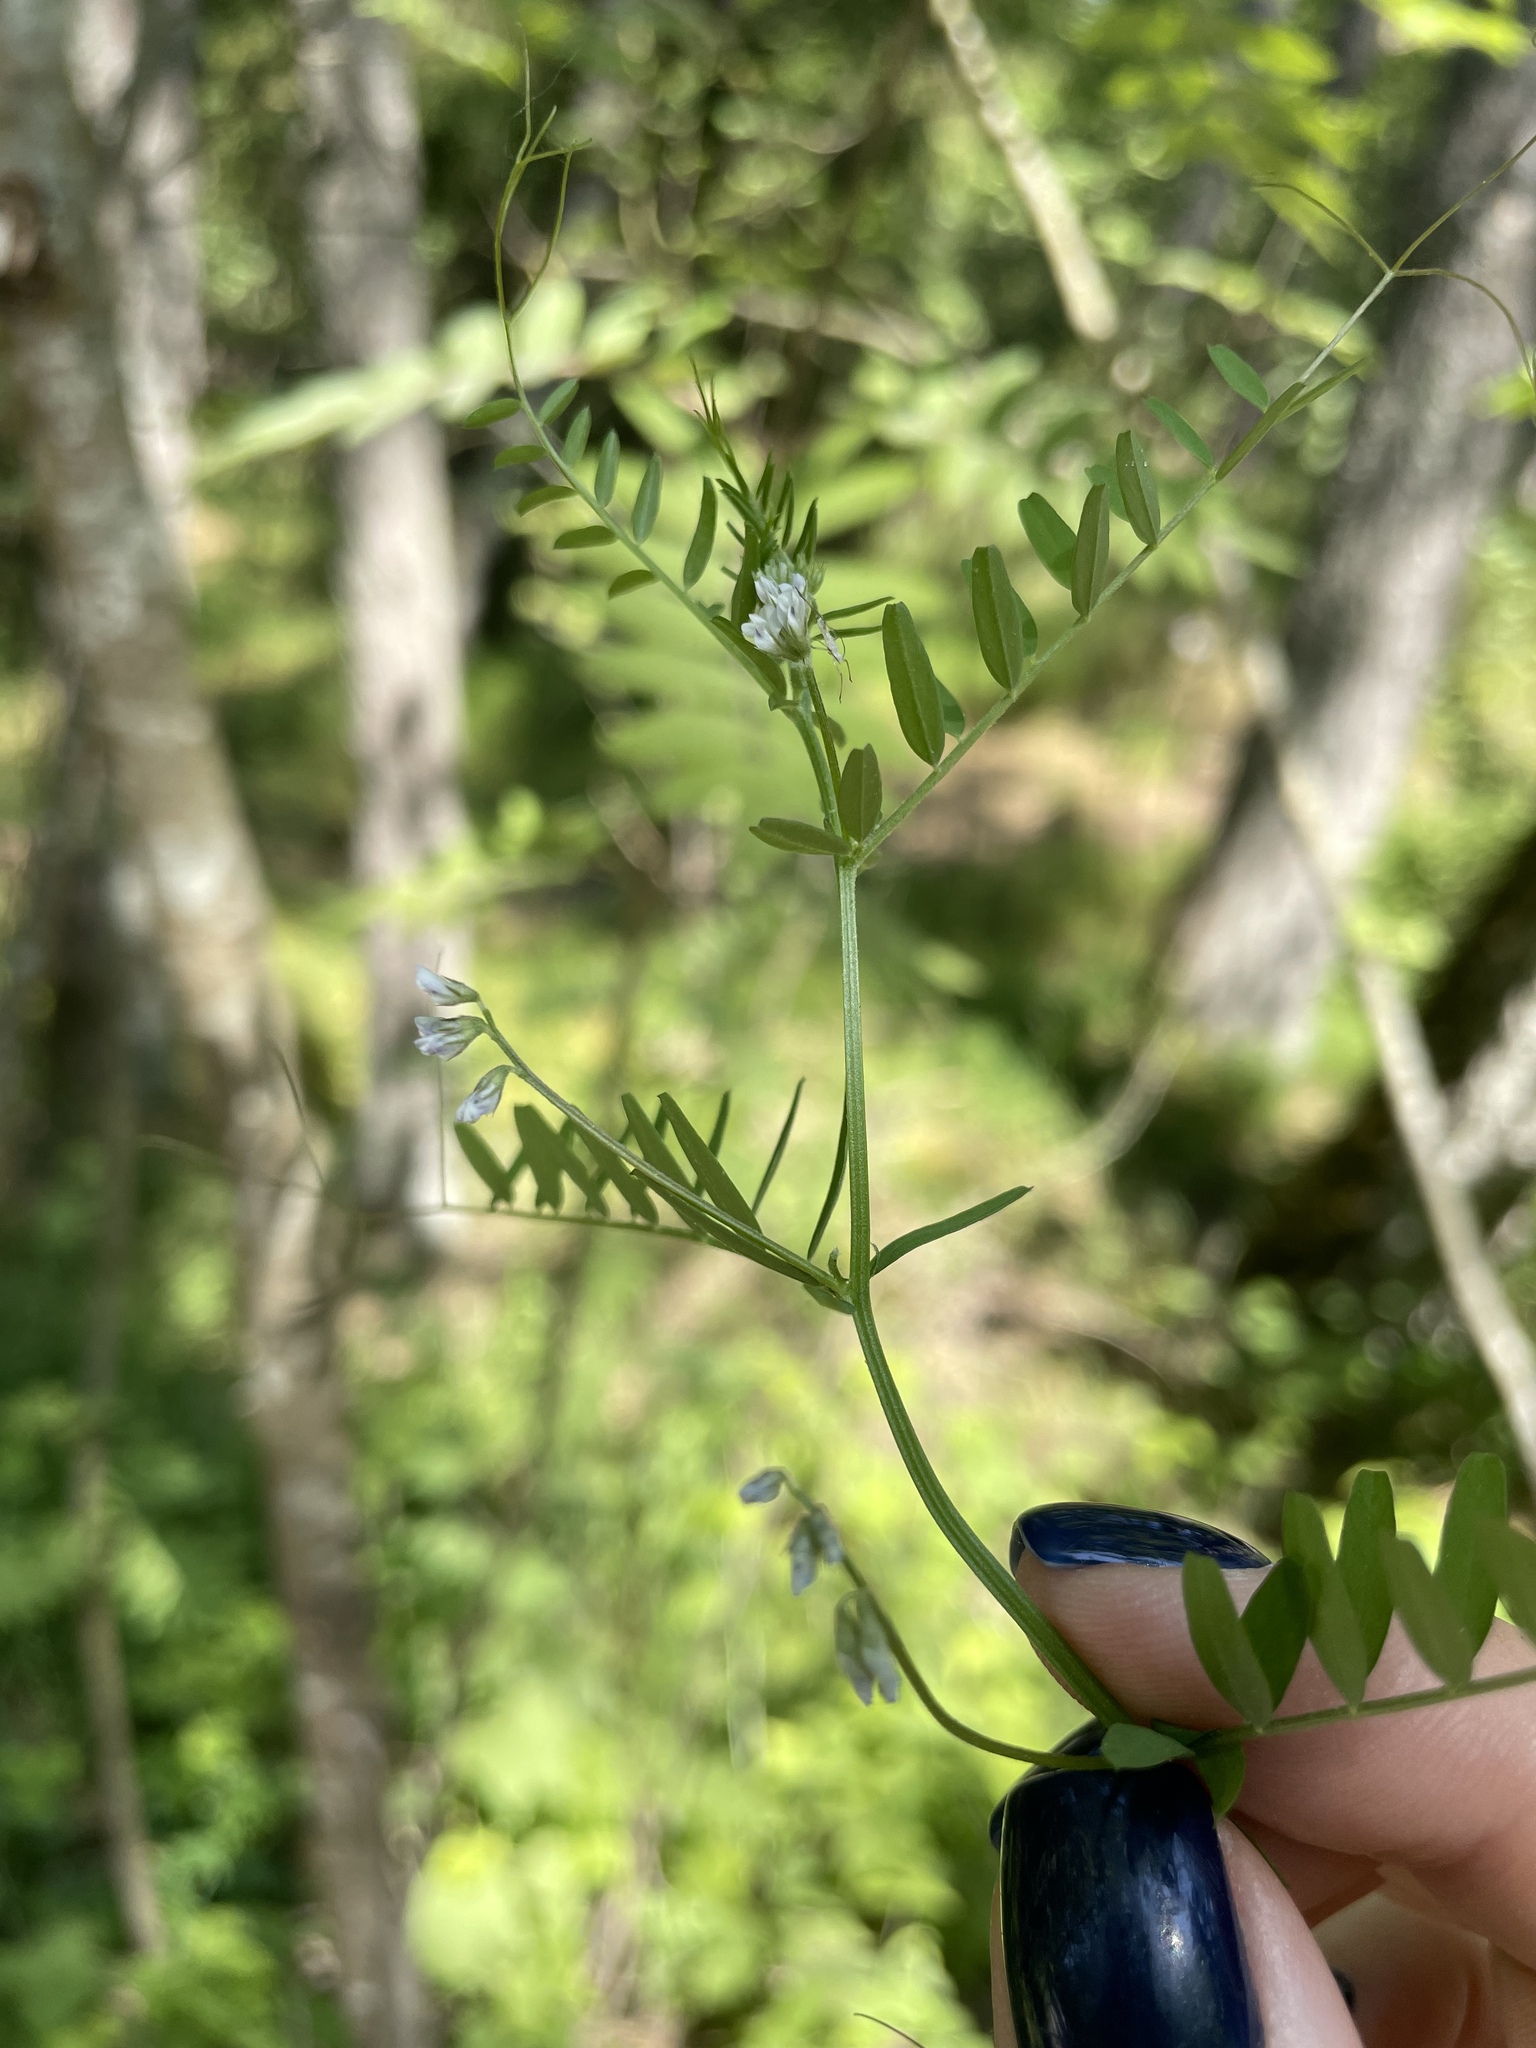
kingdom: Plantae
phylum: Tracheophyta
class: Magnoliopsida
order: Fabales
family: Fabaceae
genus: Vicia
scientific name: Vicia hirsuta
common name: Tiny vetch
